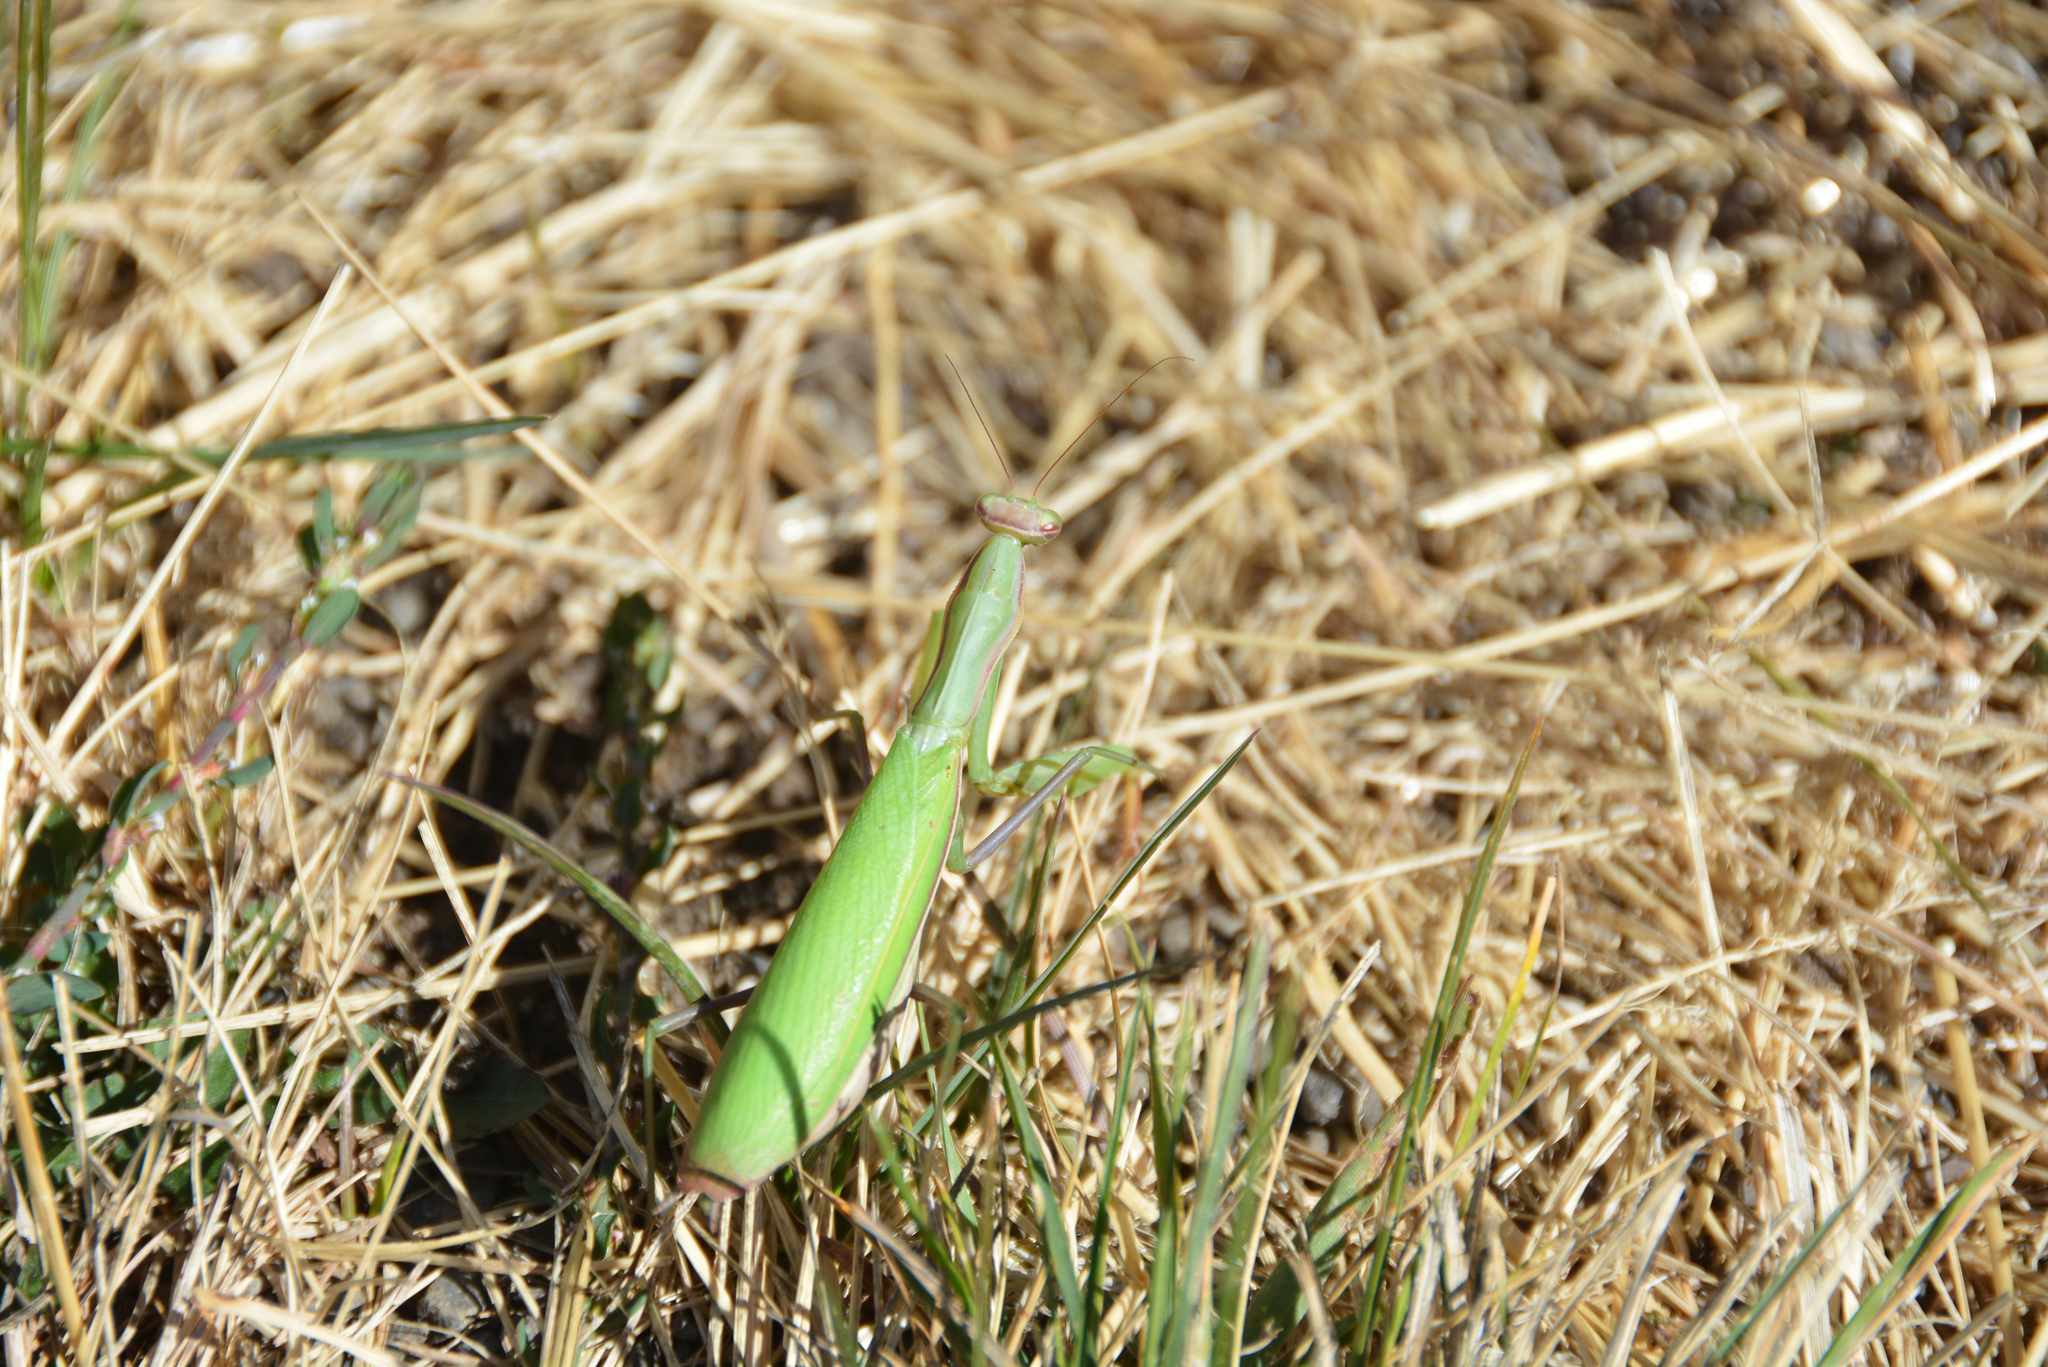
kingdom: Animalia
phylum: Arthropoda
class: Insecta
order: Mantodea
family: Mantidae
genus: Mantis
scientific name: Mantis religiosa
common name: Praying mantis
